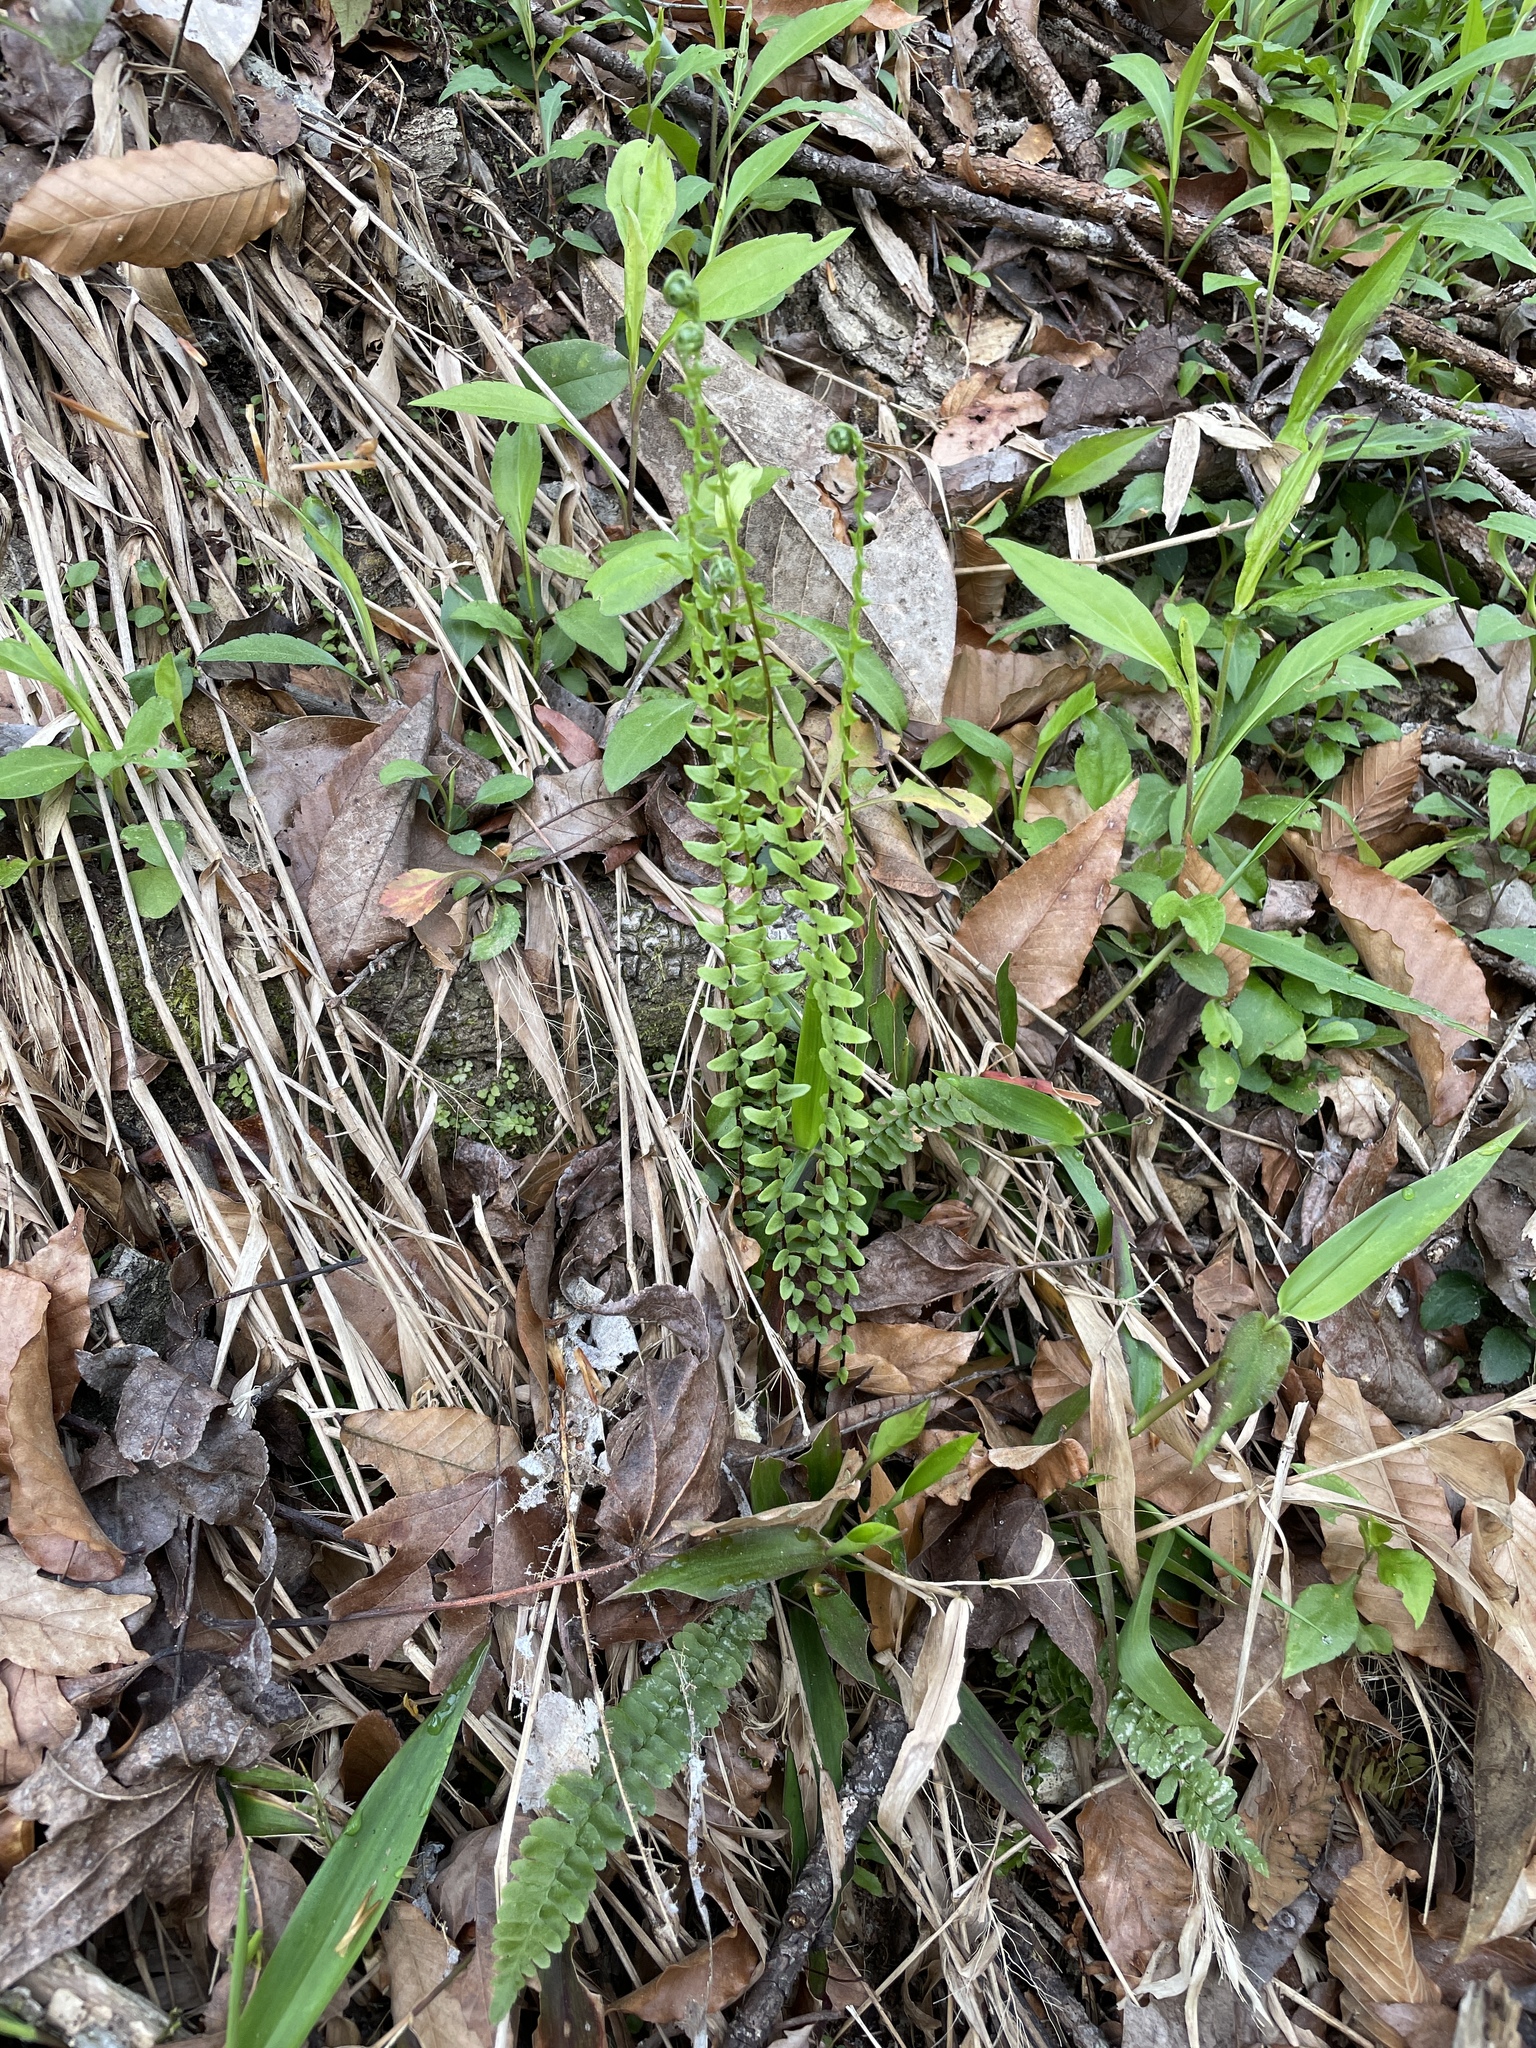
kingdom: Plantae
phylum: Tracheophyta
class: Polypodiopsida
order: Polypodiales
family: Aspleniaceae
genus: Asplenium
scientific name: Asplenium platyneuron
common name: Ebony spleenwort
